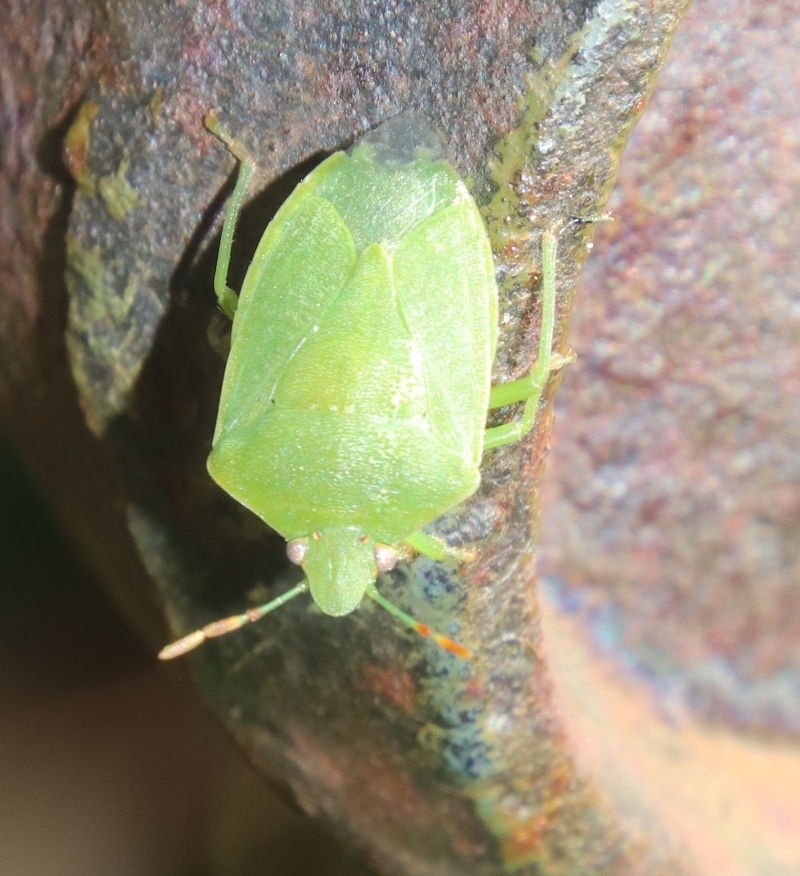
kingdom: Animalia
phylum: Arthropoda
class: Insecta
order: Hemiptera
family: Pentatomidae
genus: Nezara
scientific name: Nezara viridula
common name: Southern green stink bug
